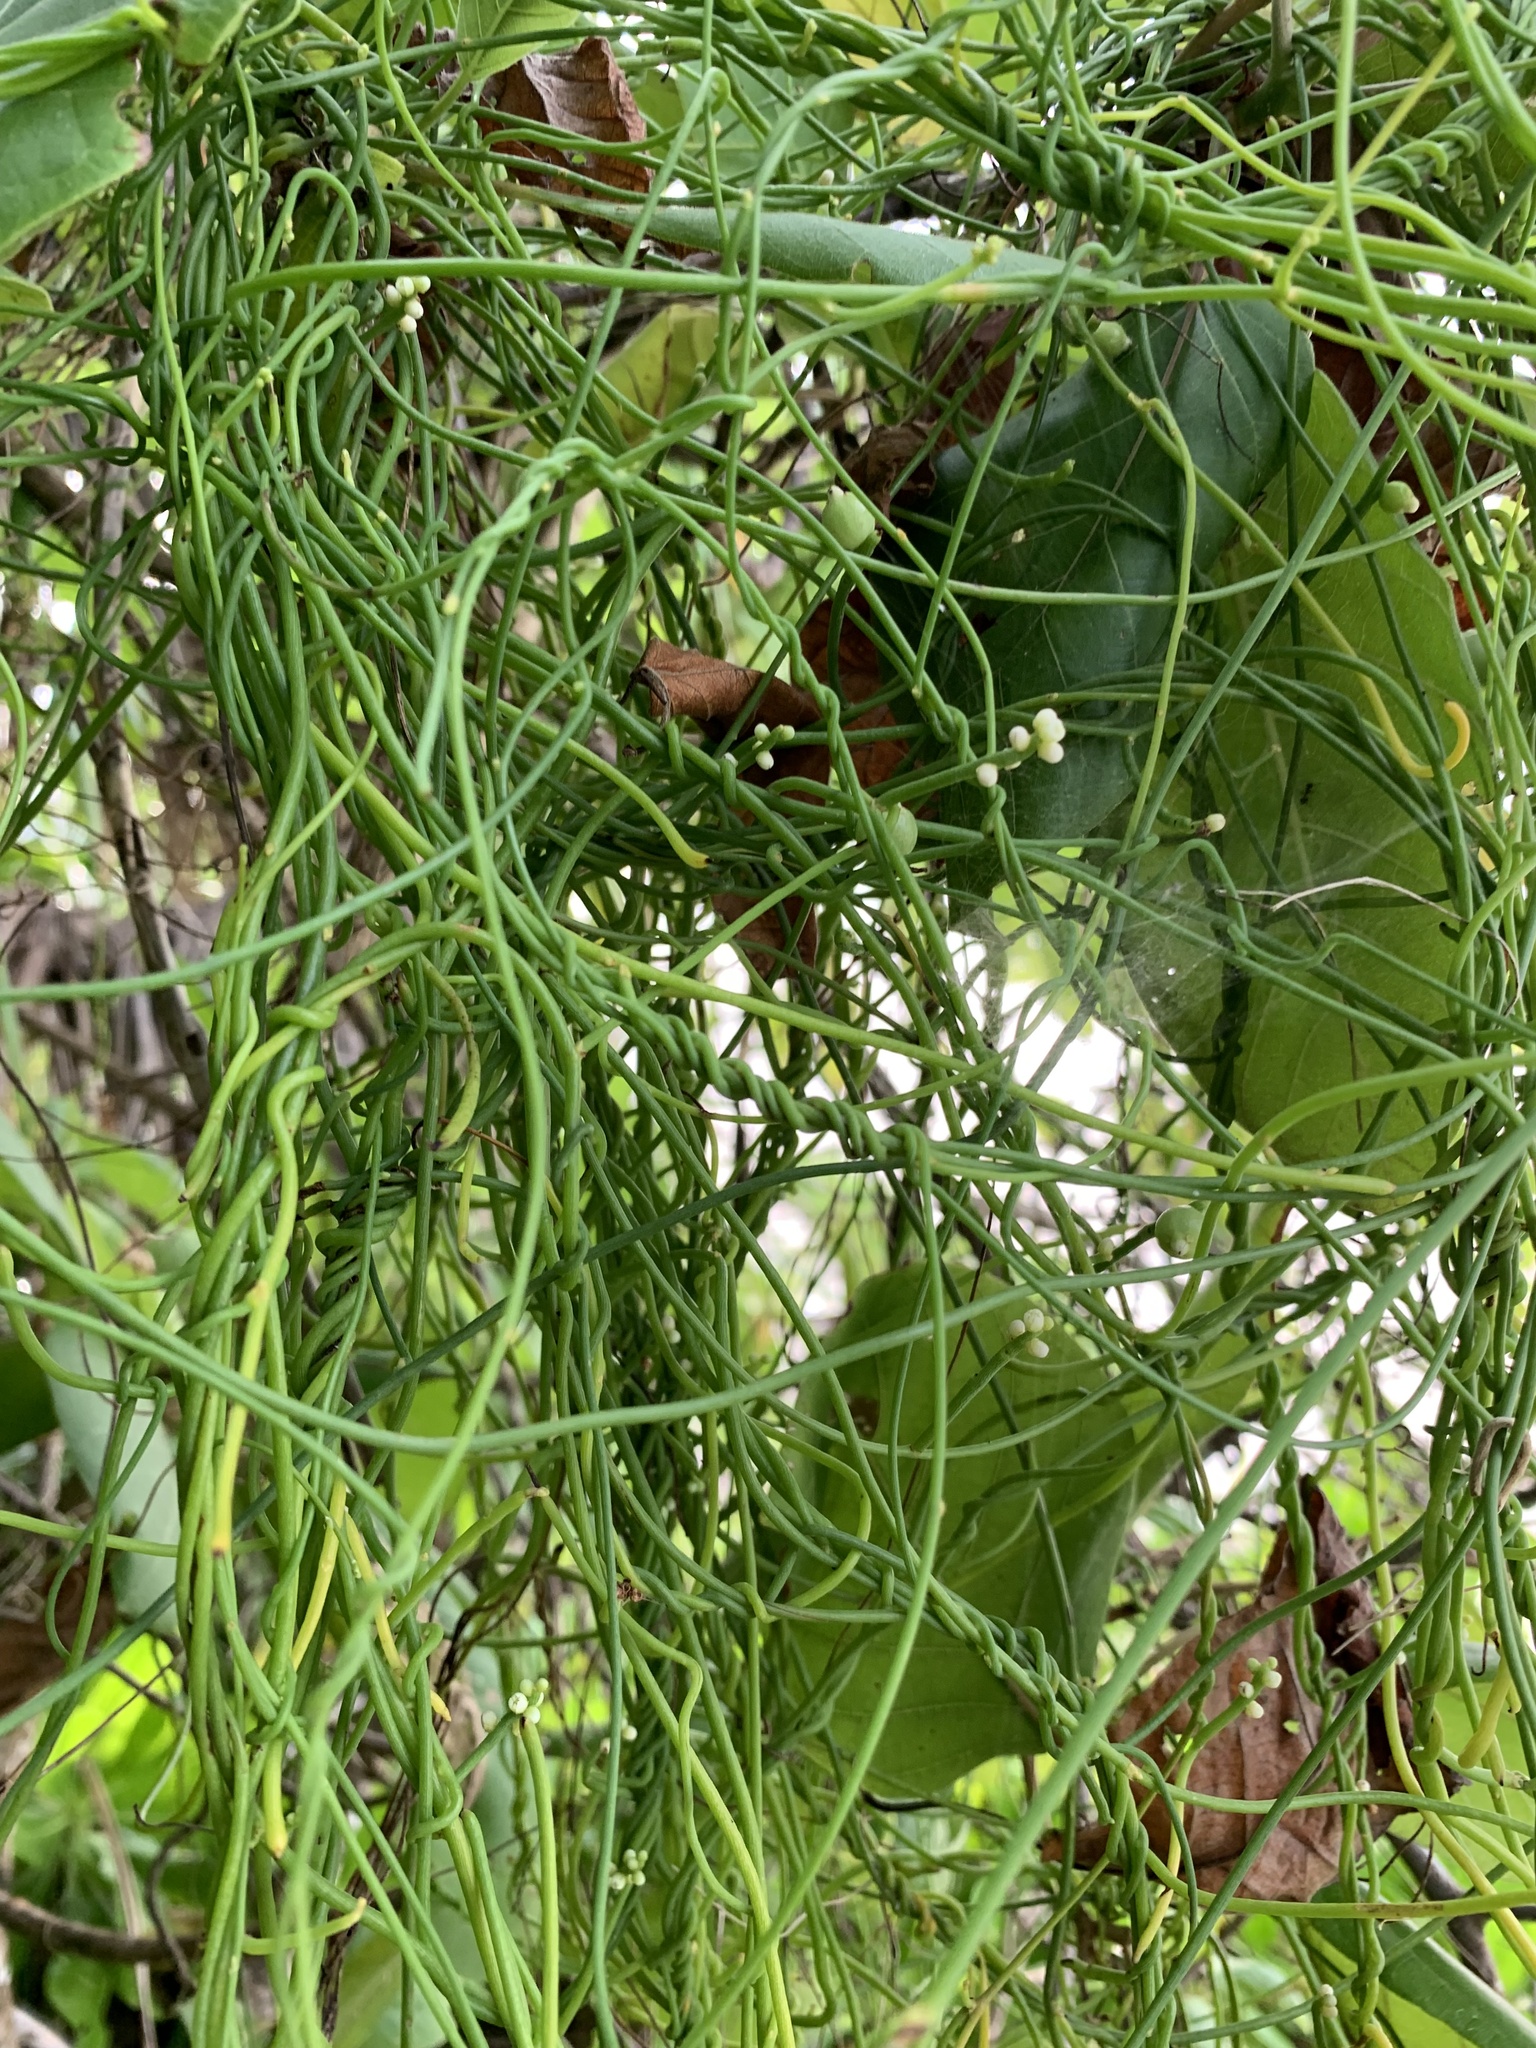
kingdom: Plantae
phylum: Tracheophyta
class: Magnoliopsida
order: Laurales
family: Lauraceae
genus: Cassytha
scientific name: Cassytha filiformis
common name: Dodder-laurel
